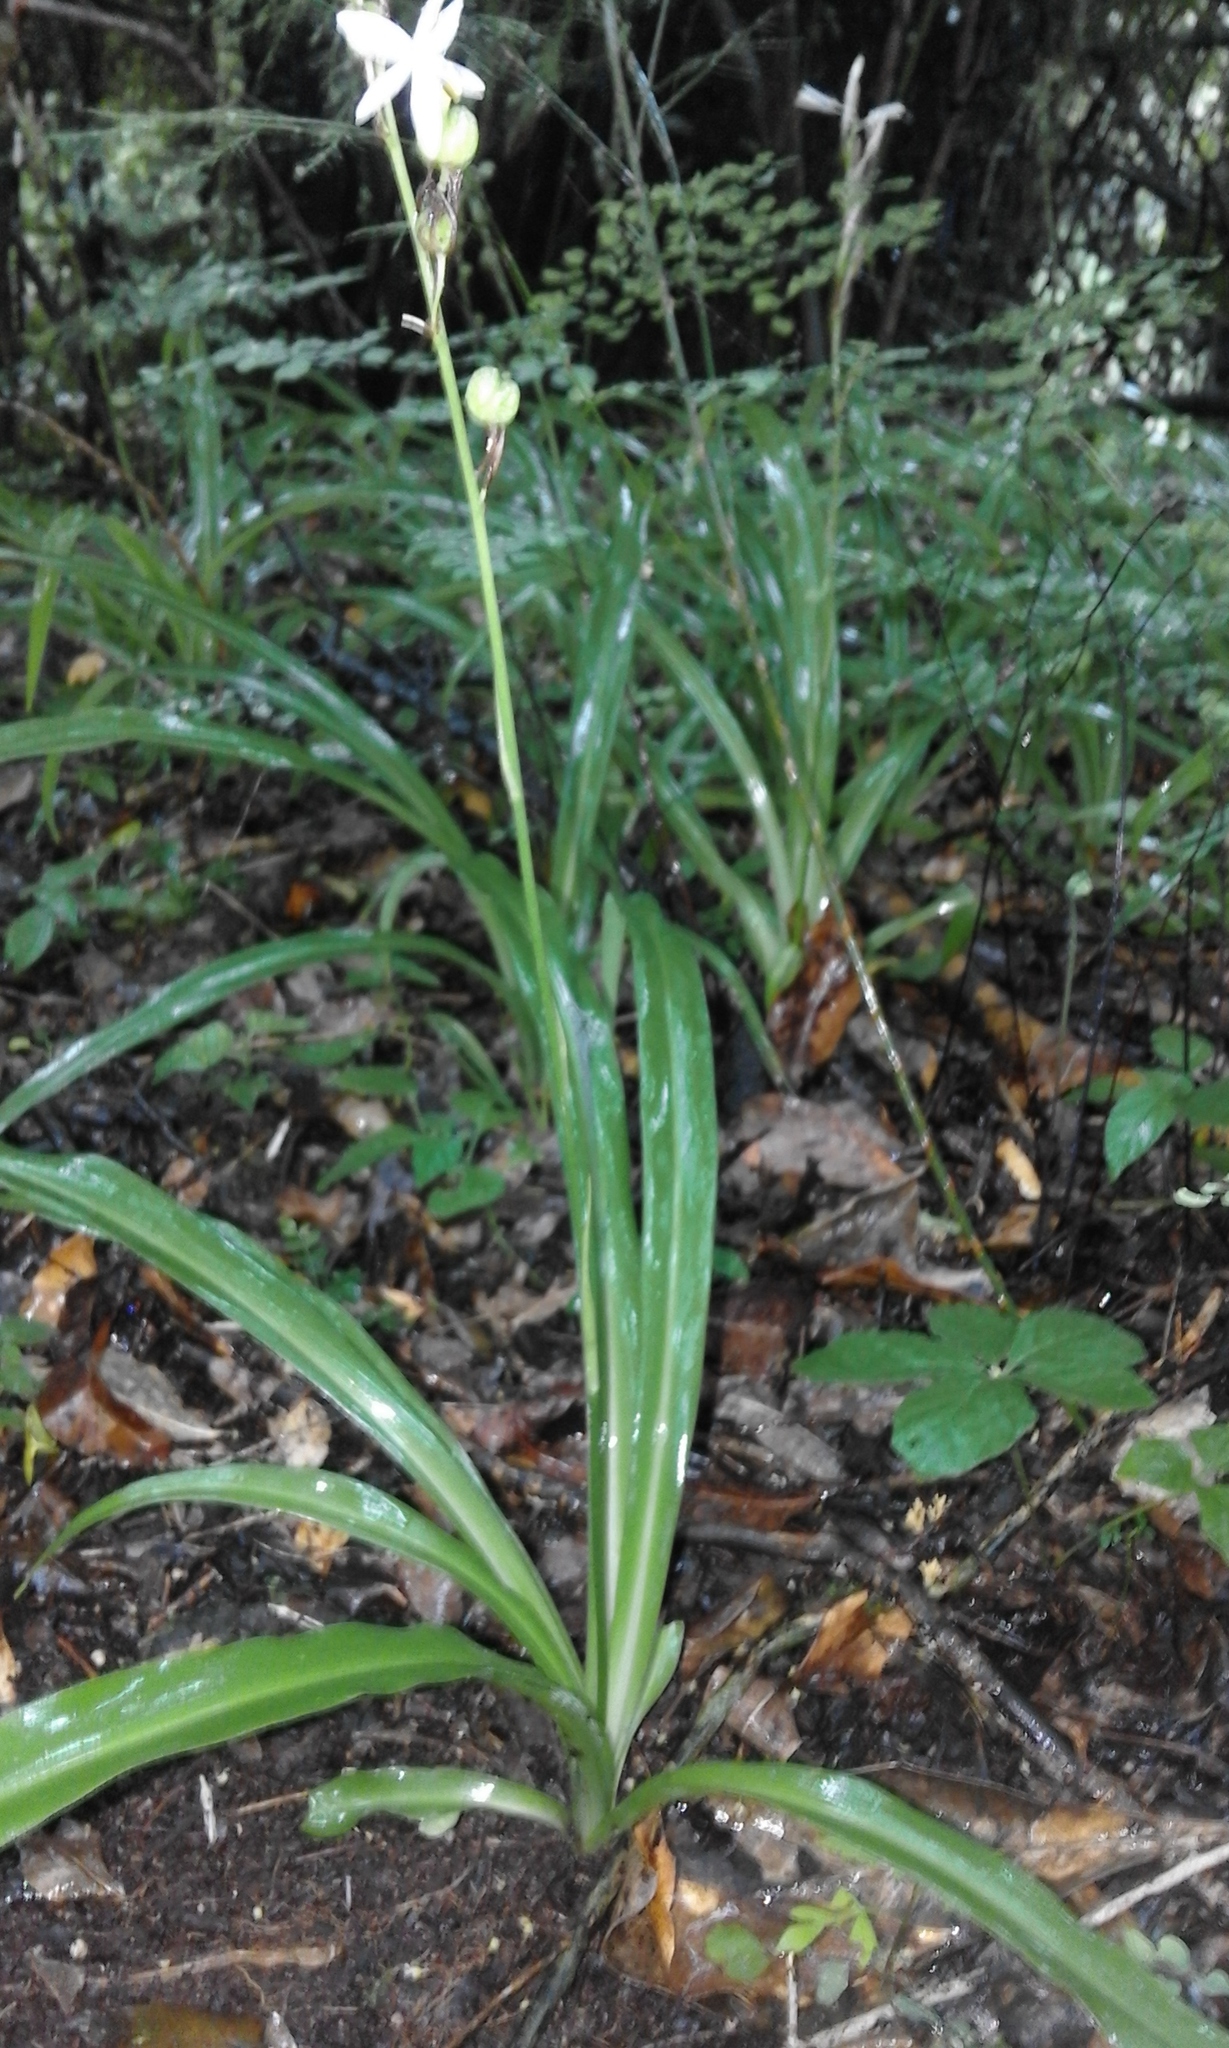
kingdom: Plantae
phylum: Tracheophyta
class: Liliopsida
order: Asparagales
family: Asparagaceae
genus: Chlorophytum
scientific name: Chlorophytum bowkeri
